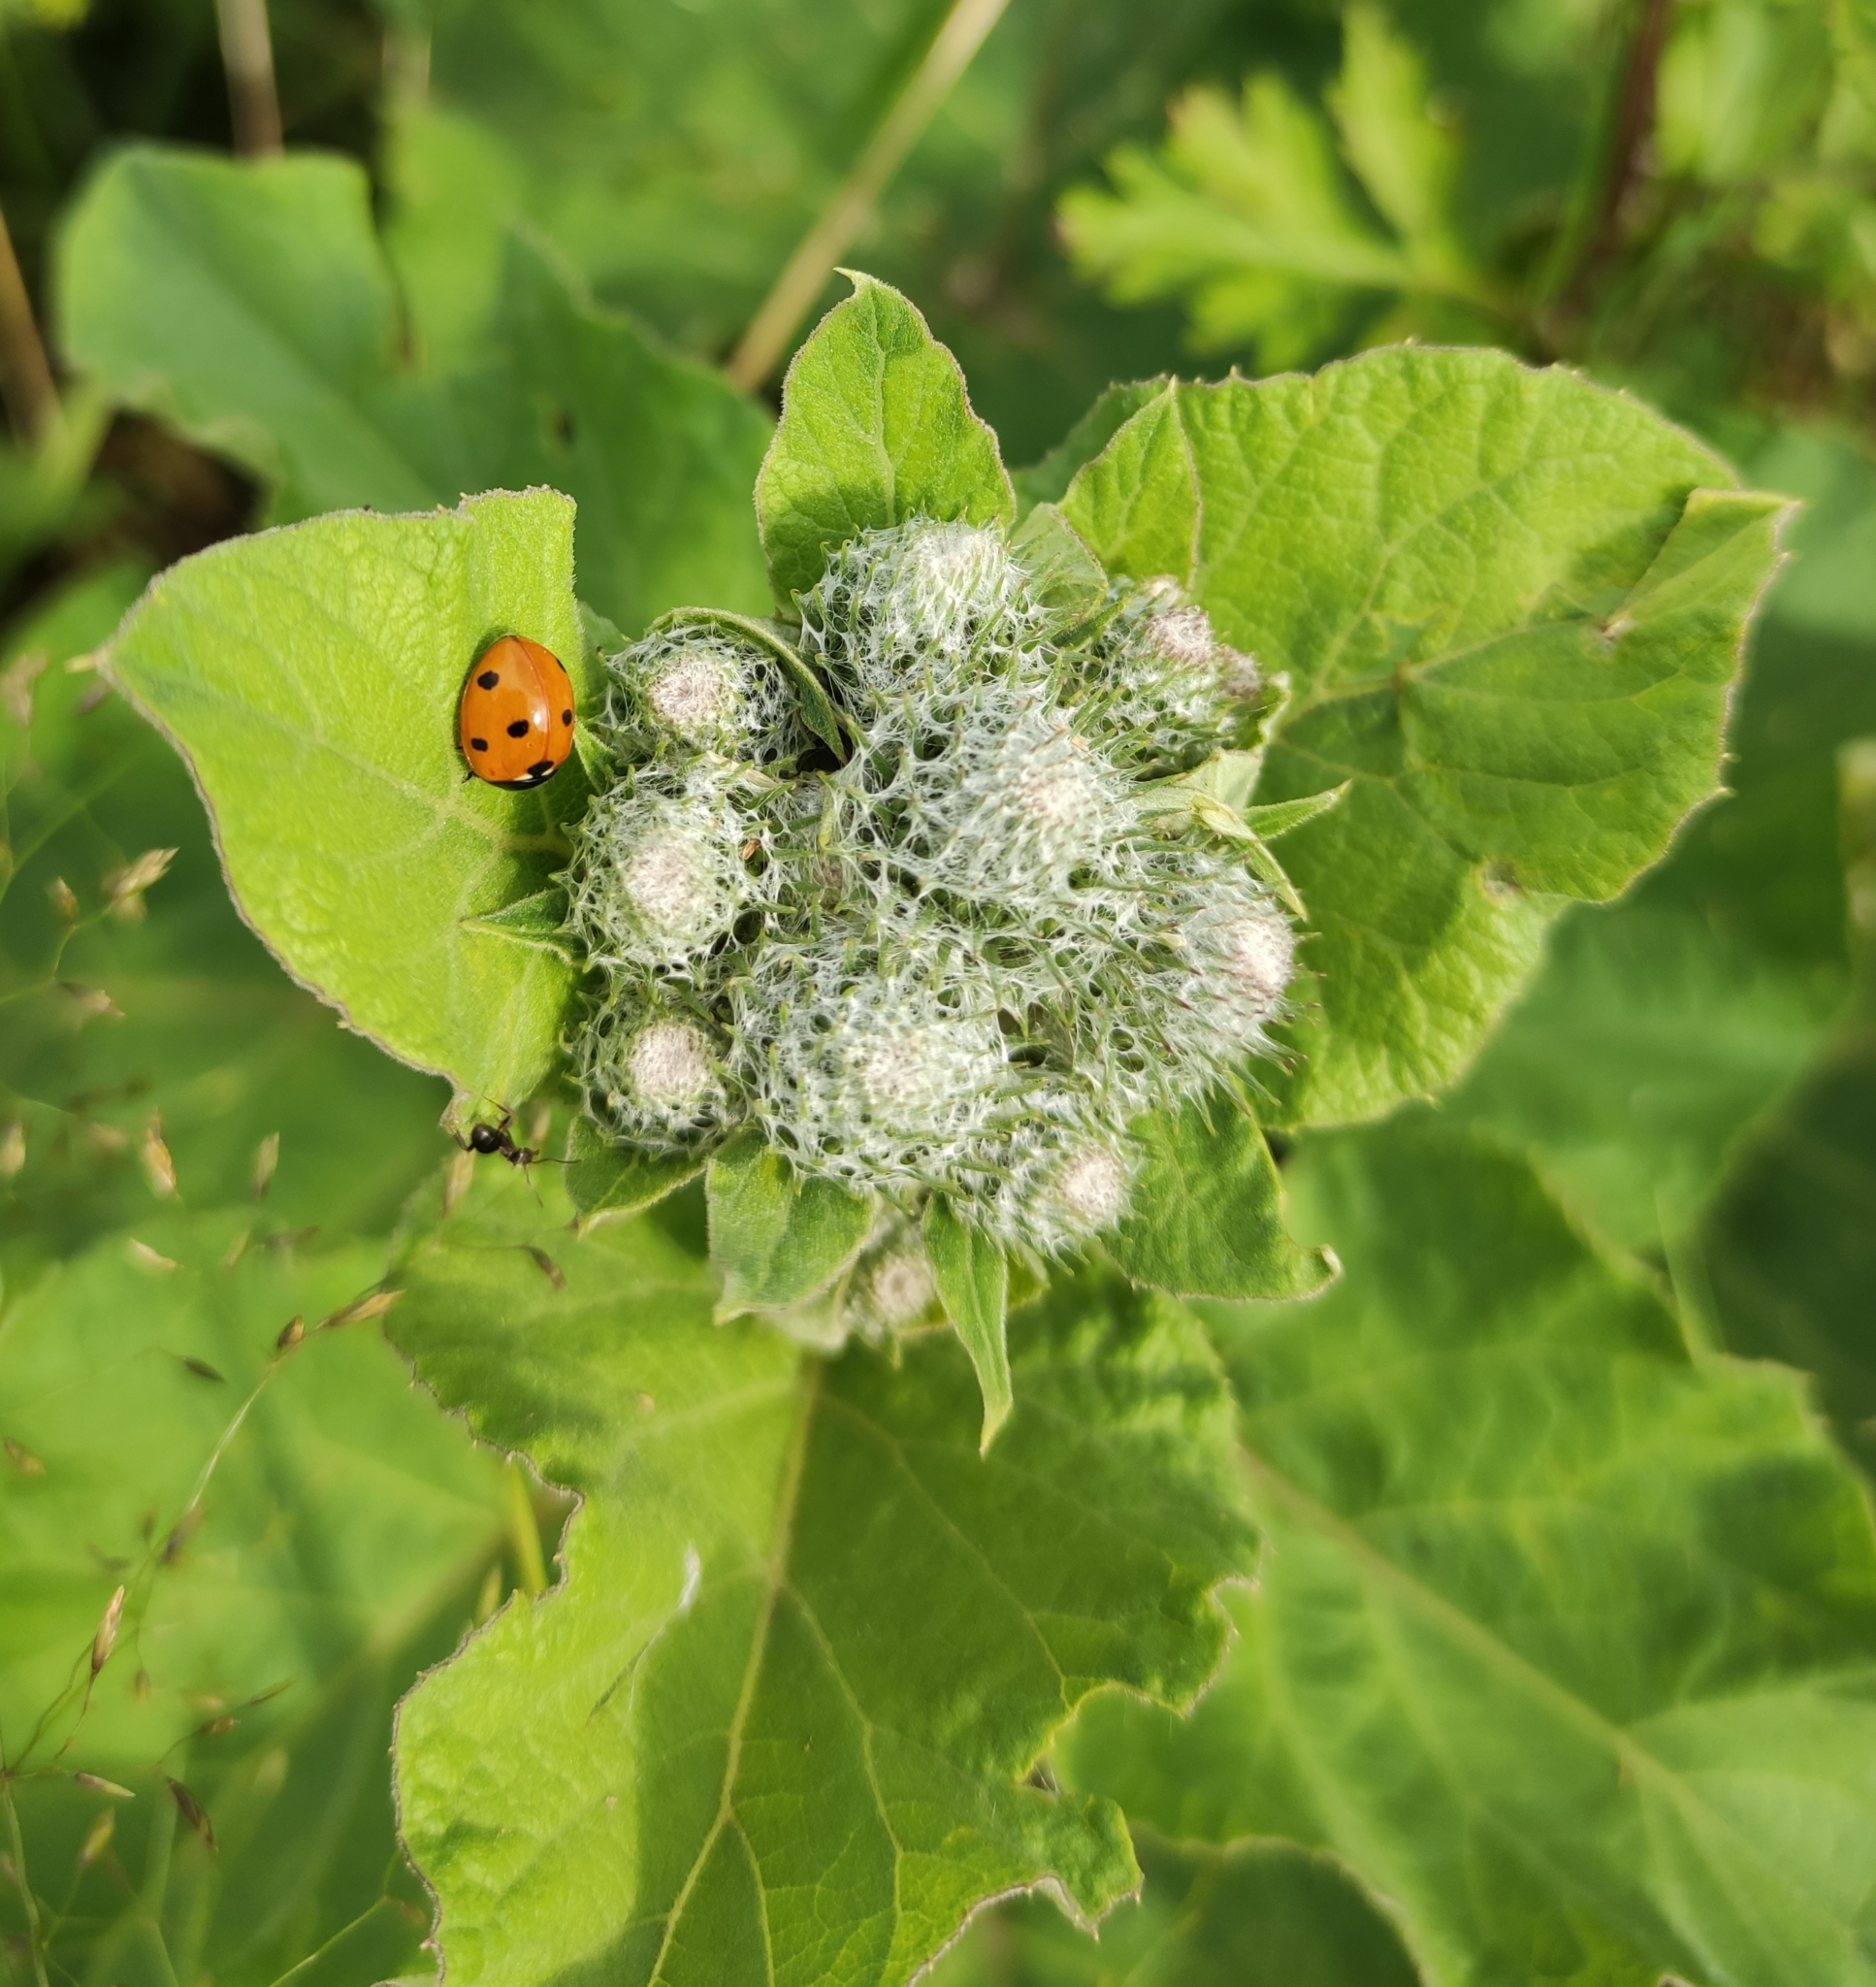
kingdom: Plantae
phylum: Tracheophyta
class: Magnoliopsida
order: Asterales
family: Asteraceae
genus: Arctium
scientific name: Arctium tomentosum
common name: Woolly burdock
